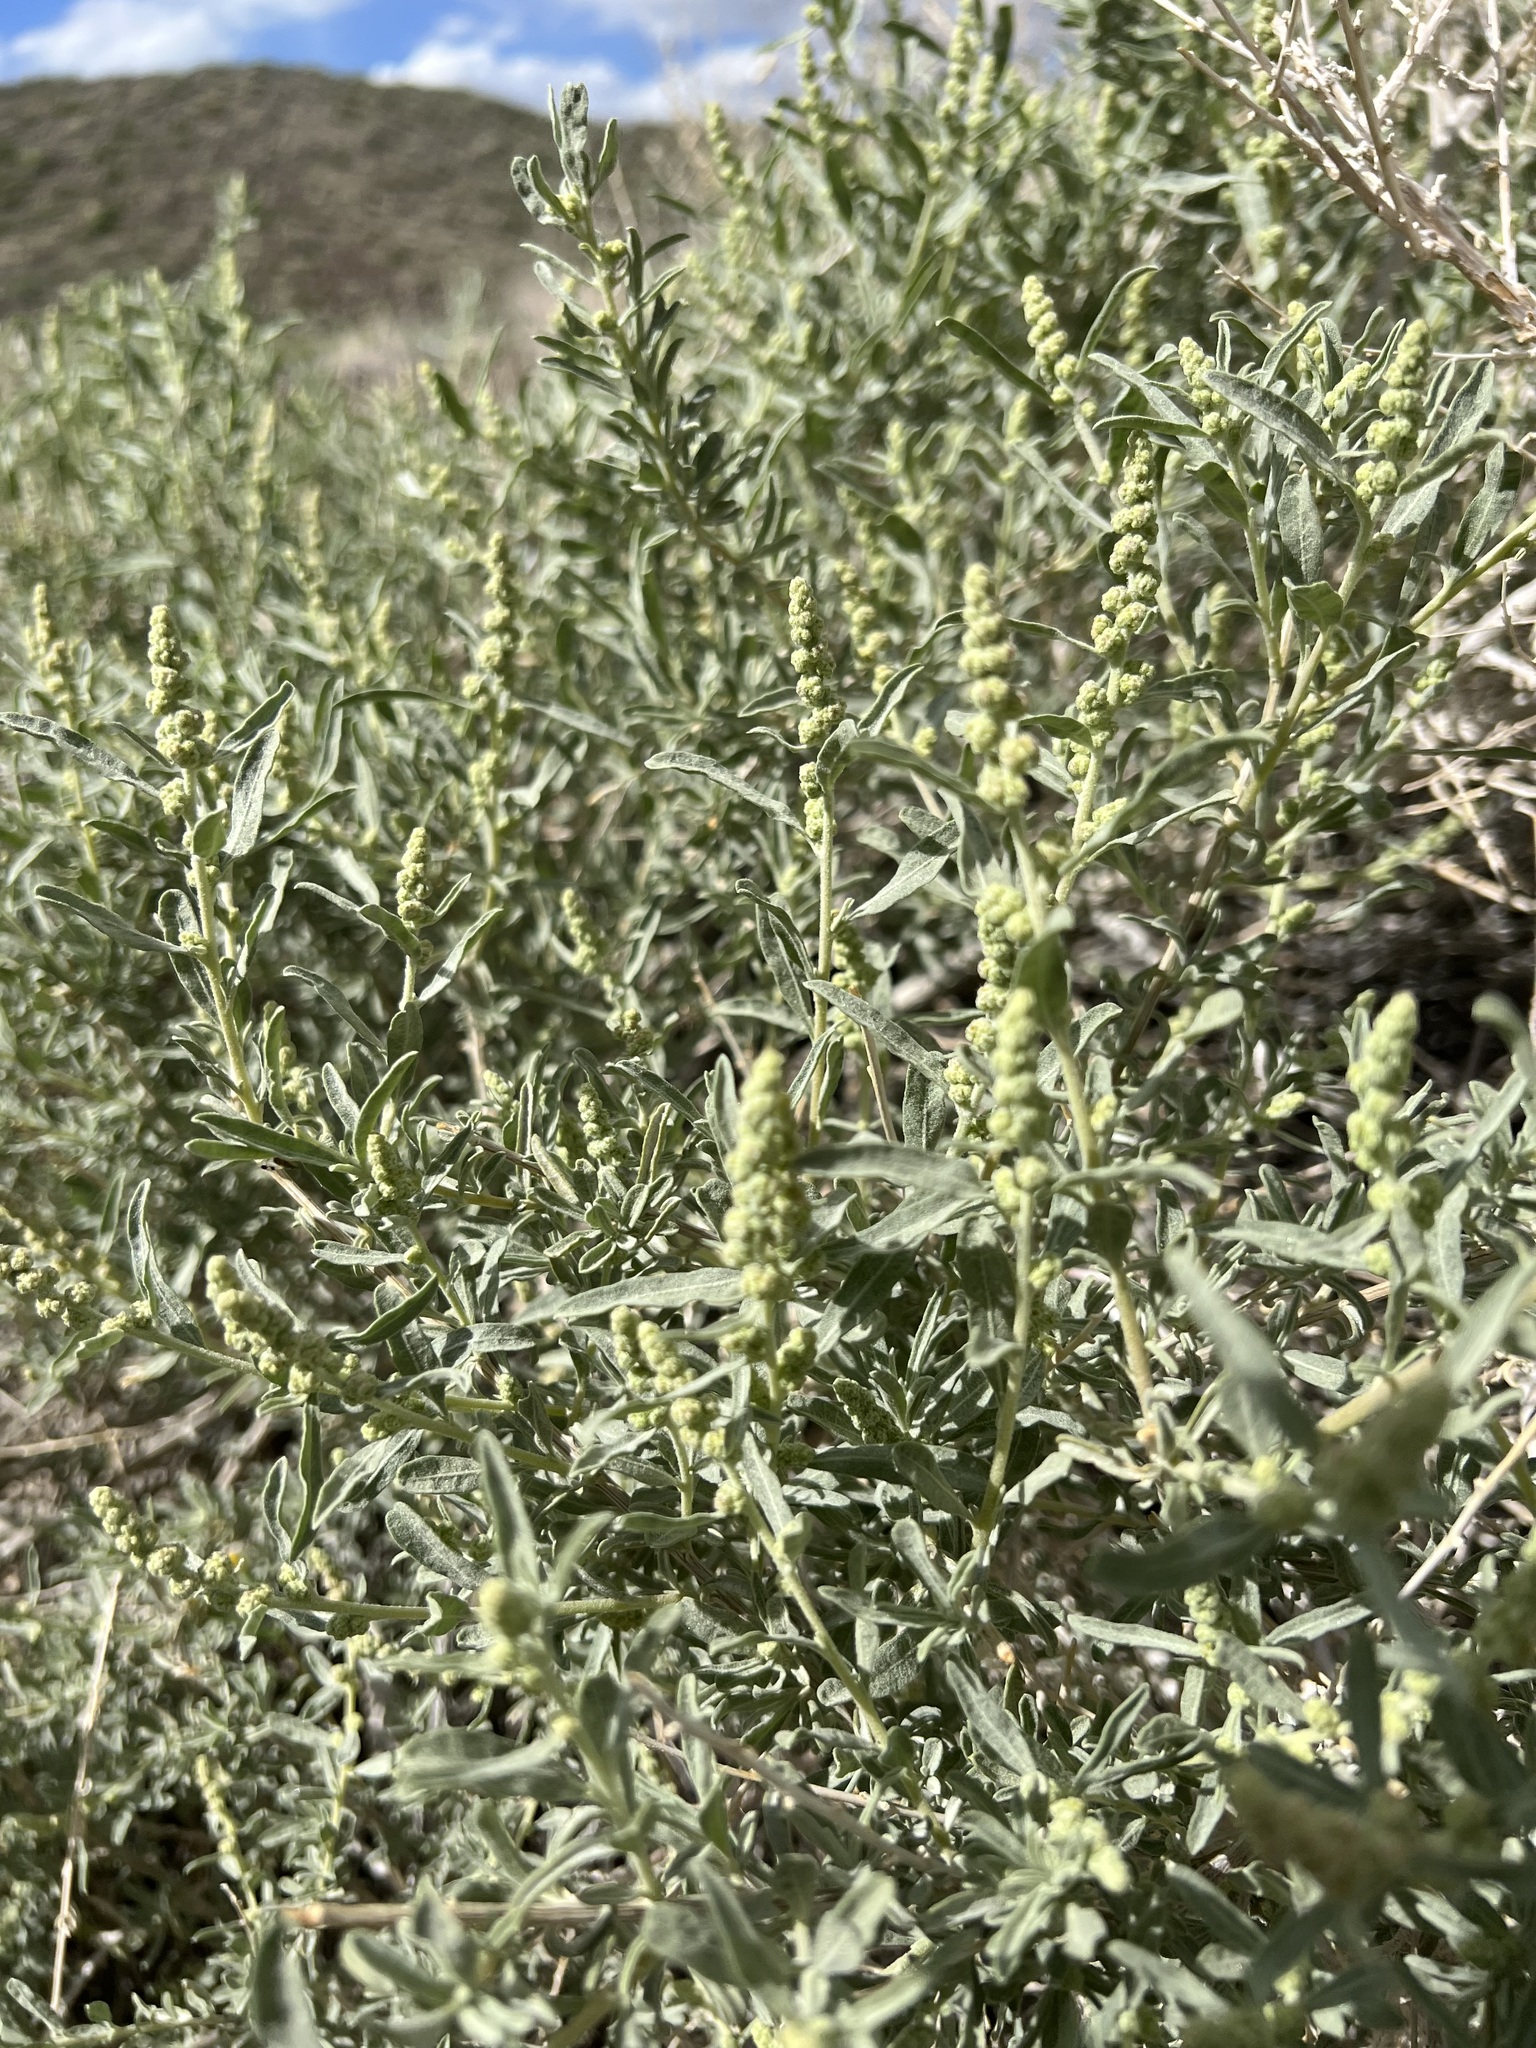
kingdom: Plantae
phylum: Tracheophyta
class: Magnoliopsida
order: Caryophyllales
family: Amaranthaceae
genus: Atriplex
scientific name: Atriplex canescens
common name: Four-wing saltbush
